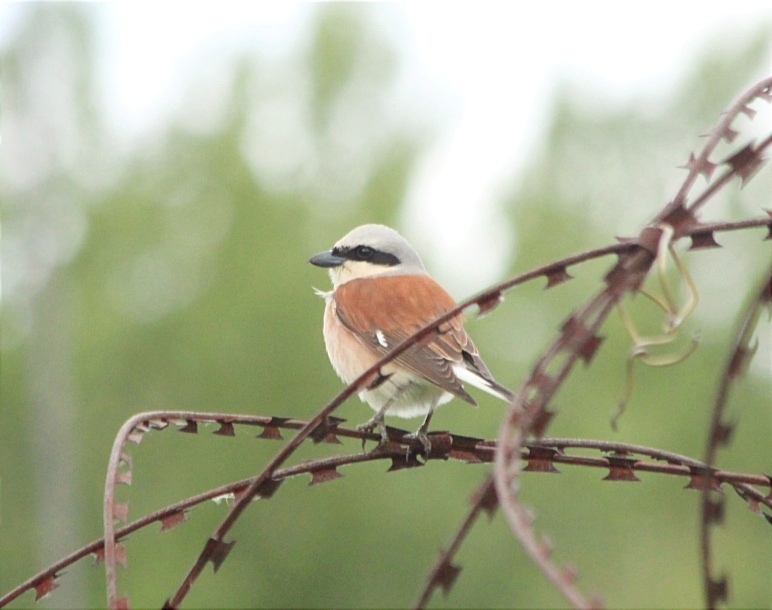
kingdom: Animalia
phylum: Chordata
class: Aves
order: Passeriformes
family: Laniidae
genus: Lanius
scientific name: Lanius collurio
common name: Red-backed shrike
